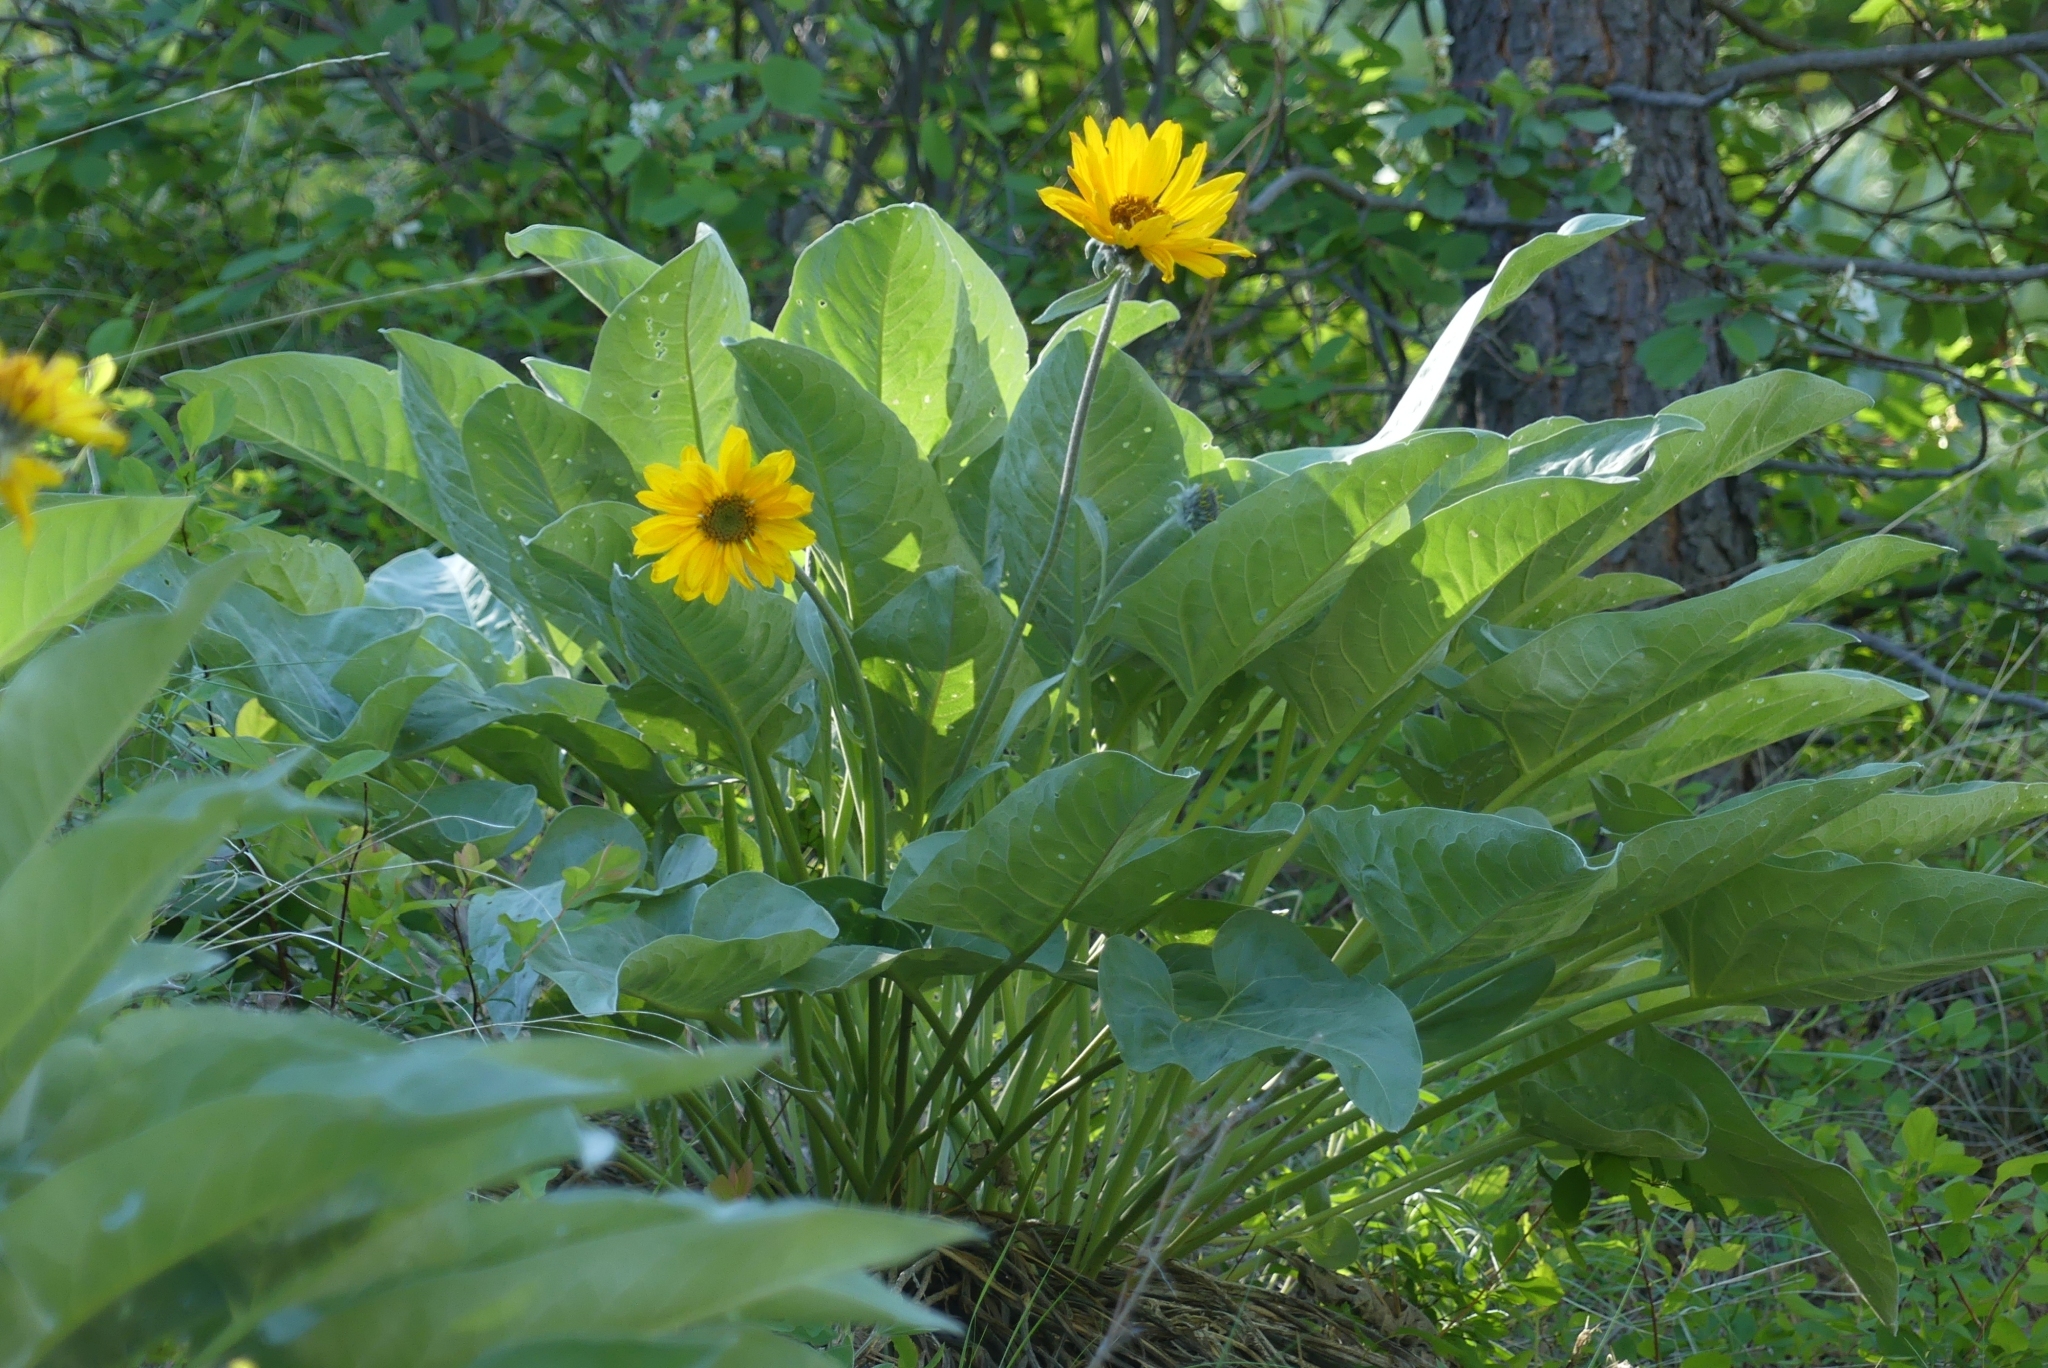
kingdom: Plantae
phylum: Tracheophyta
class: Magnoliopsida
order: Asterales
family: Asteraceae
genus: Wyethia
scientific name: Wyethia sagittata
